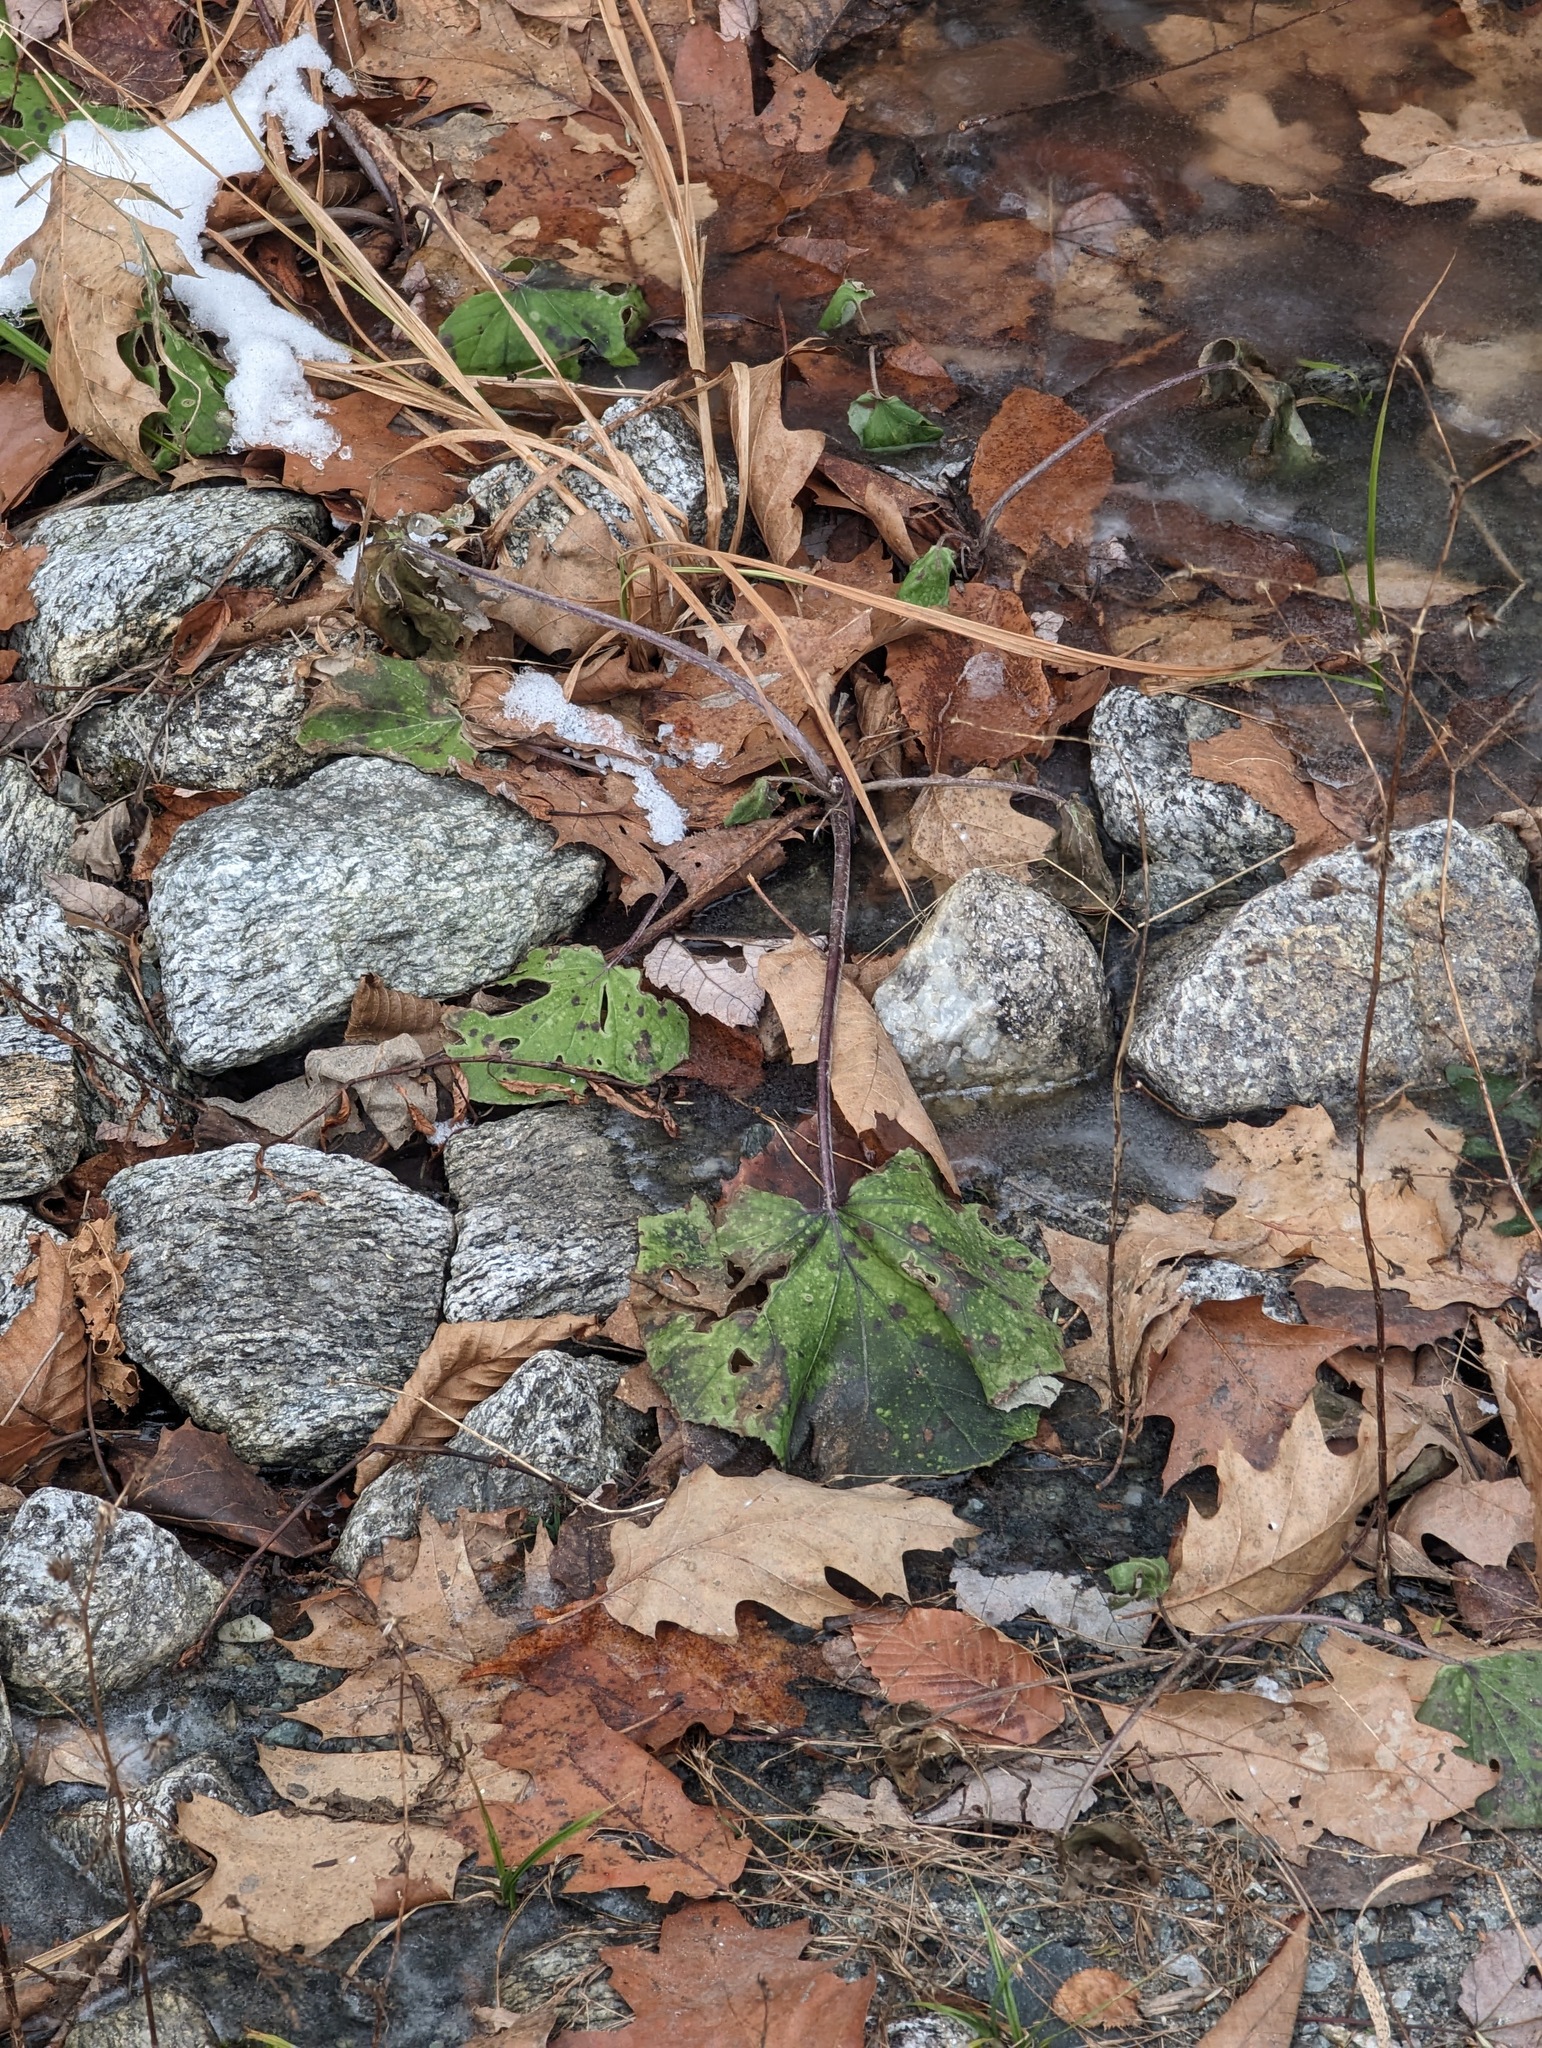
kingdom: Plantae
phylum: Tracheophyta
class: Magnoliopsida
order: Asterales
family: Asteraceae
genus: Tussilago
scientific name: Tussilago farfara
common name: Coltsfoot
